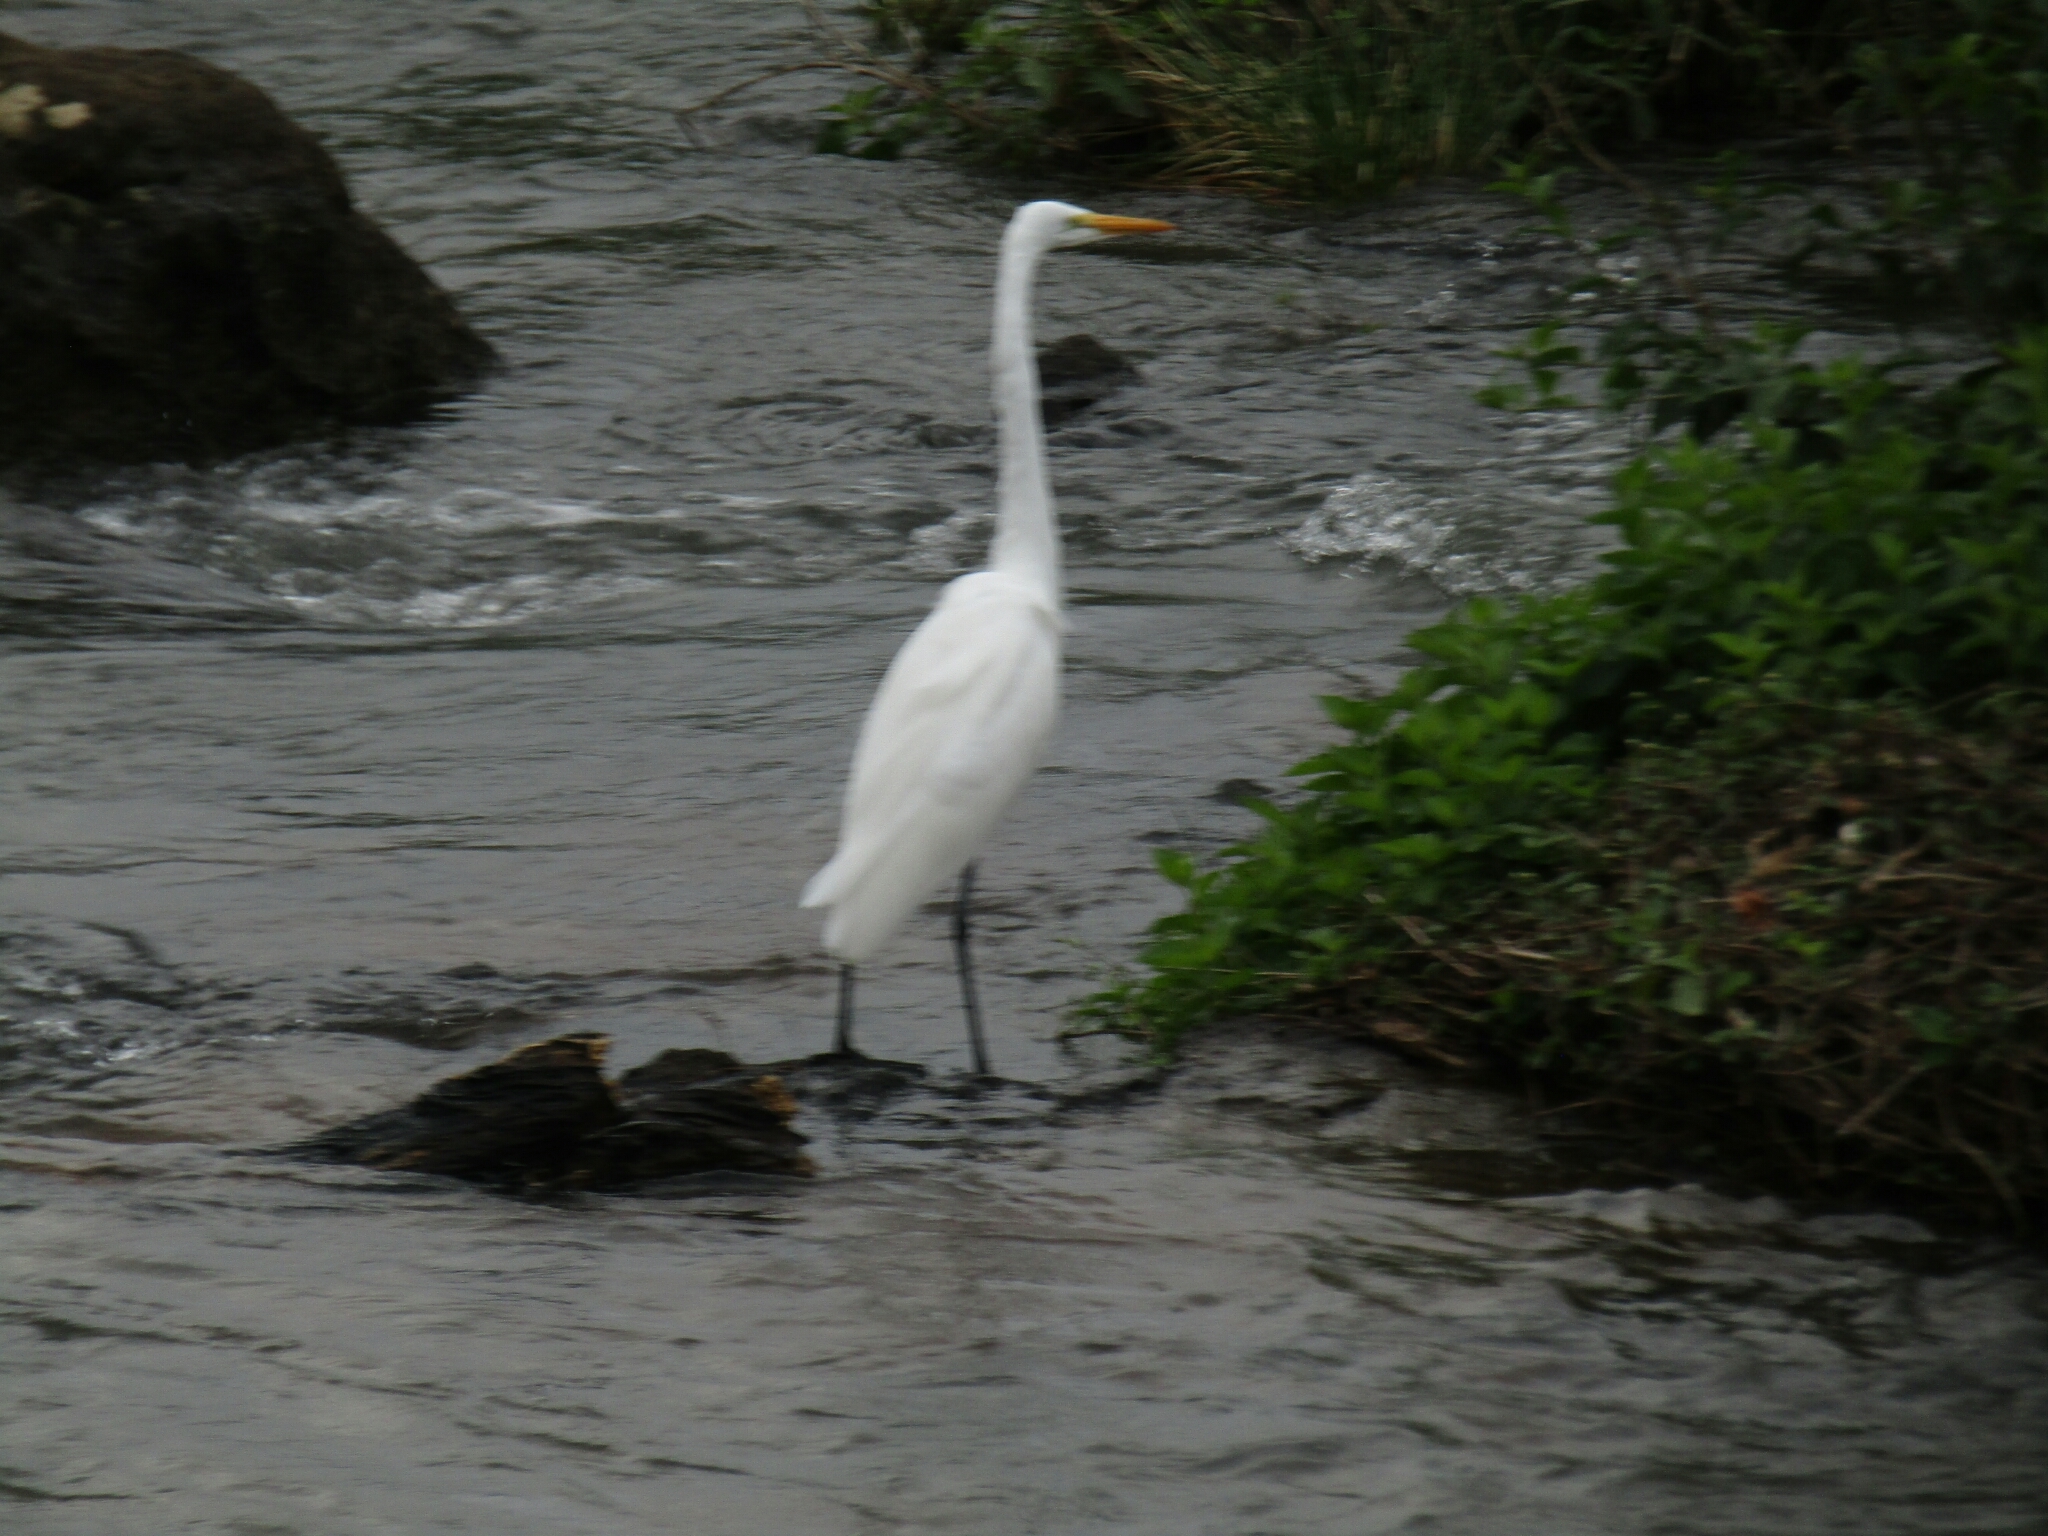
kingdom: Animalia
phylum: Chordata
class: Aves
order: Pelecaniformes
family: Ardeidae
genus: Ardea
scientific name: Ardea alba
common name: Great egret
